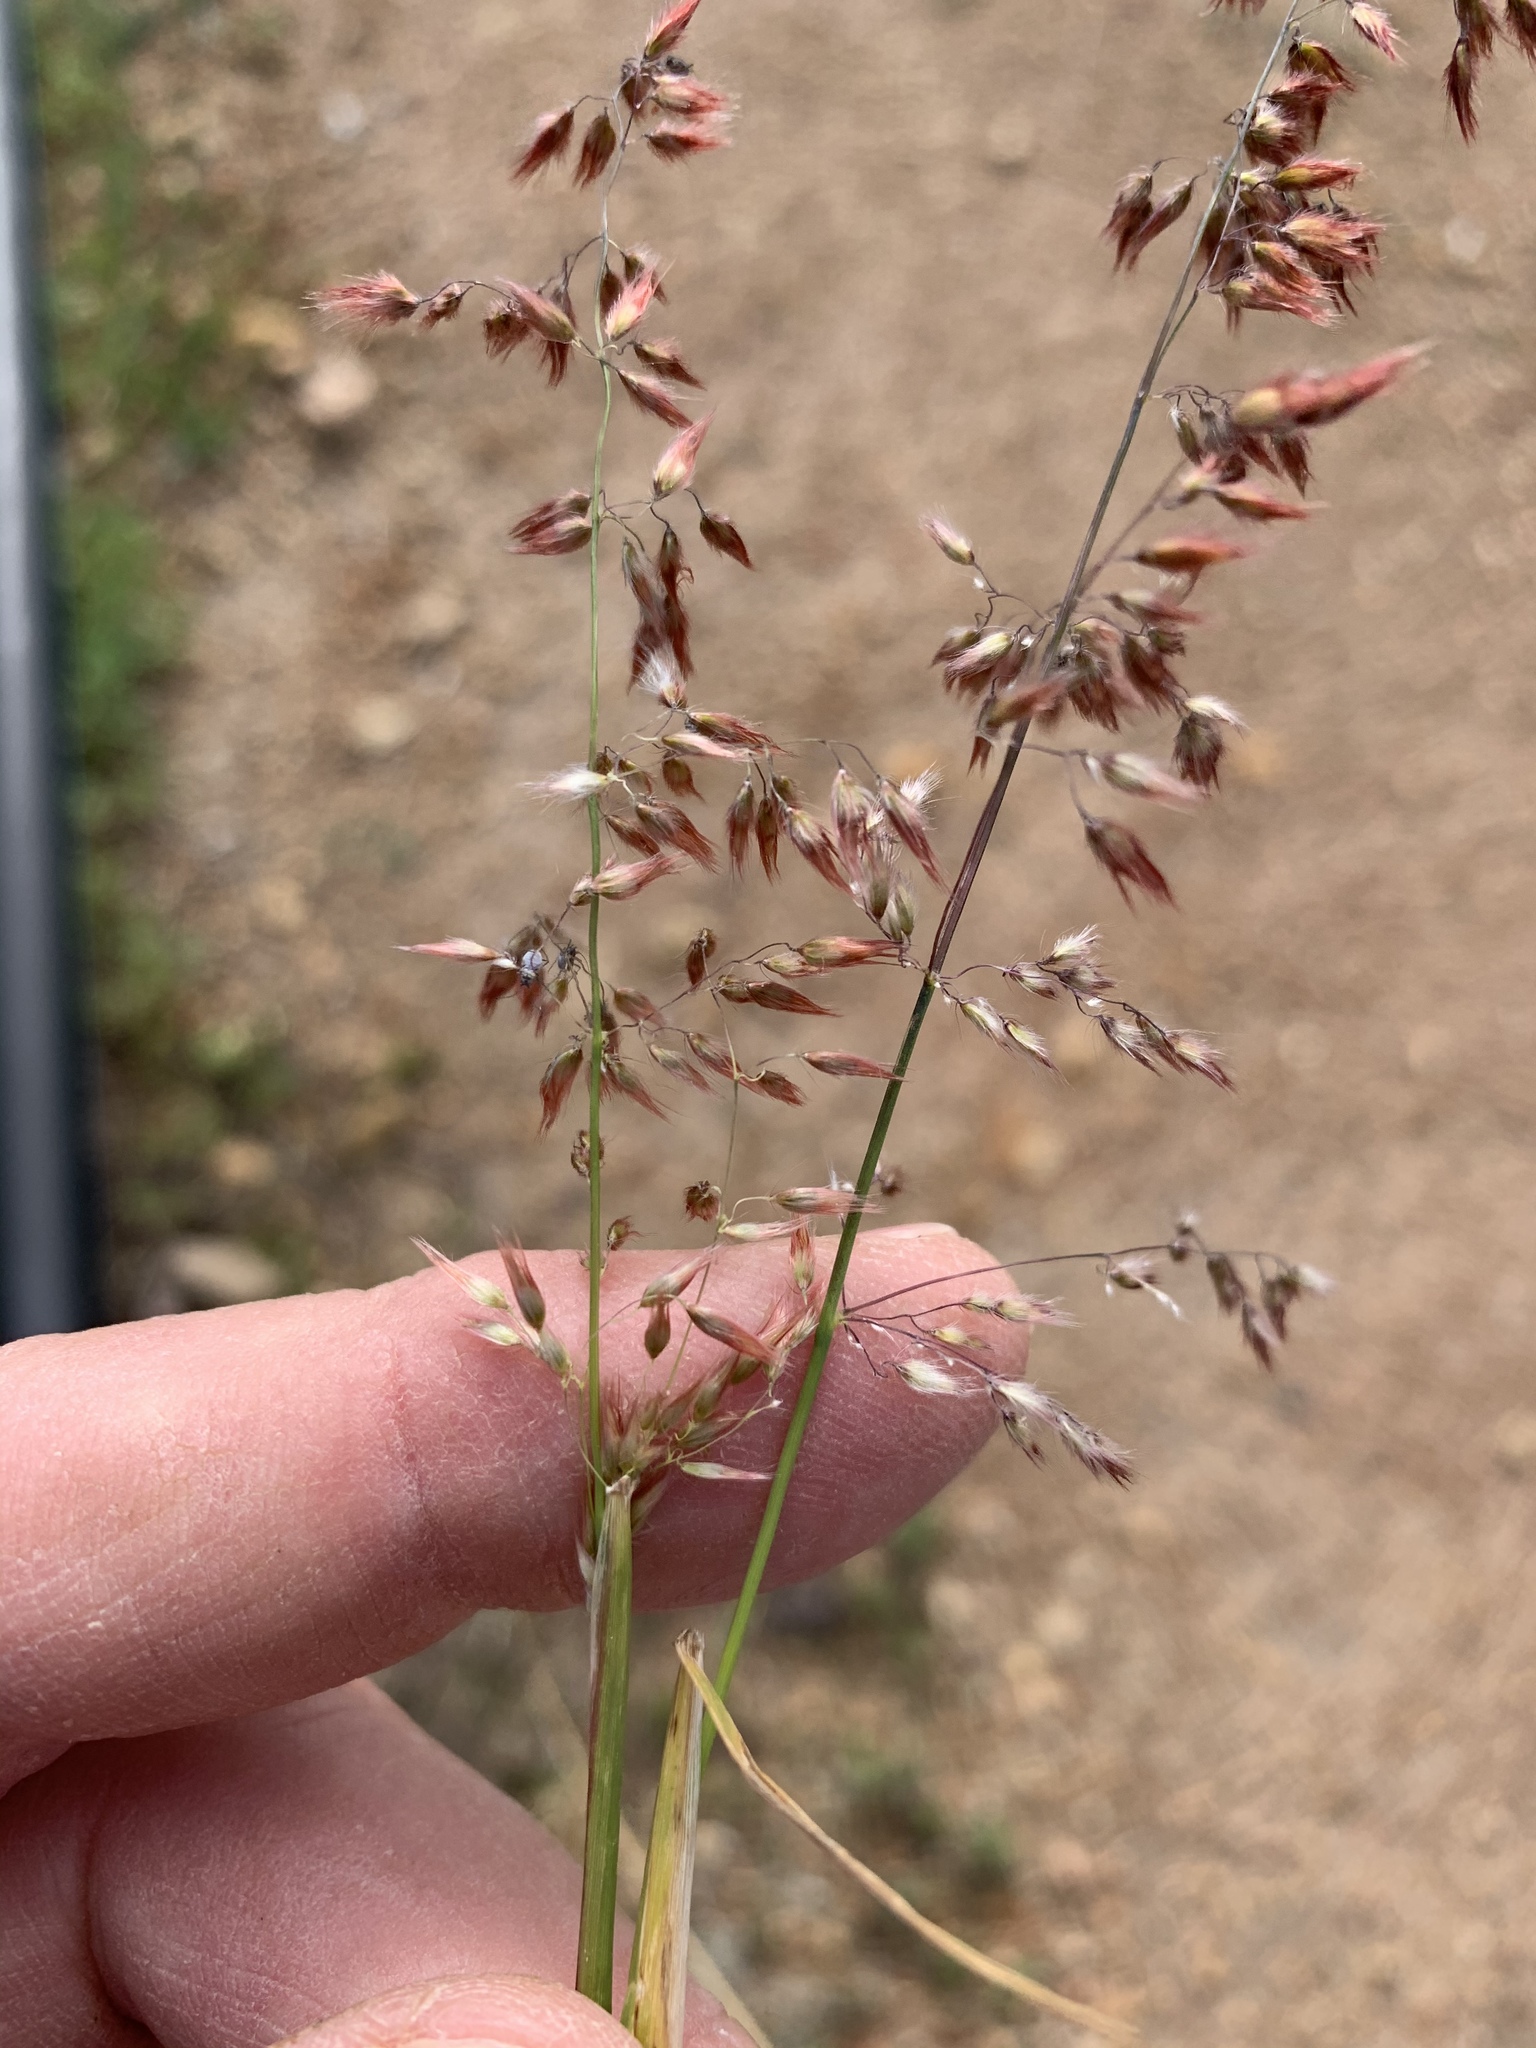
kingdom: Plantae
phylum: Tracheophyta
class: Liliopsida
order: Poales
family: Poaceae
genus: Melinis
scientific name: Melinis repens
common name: Rose natal grass
